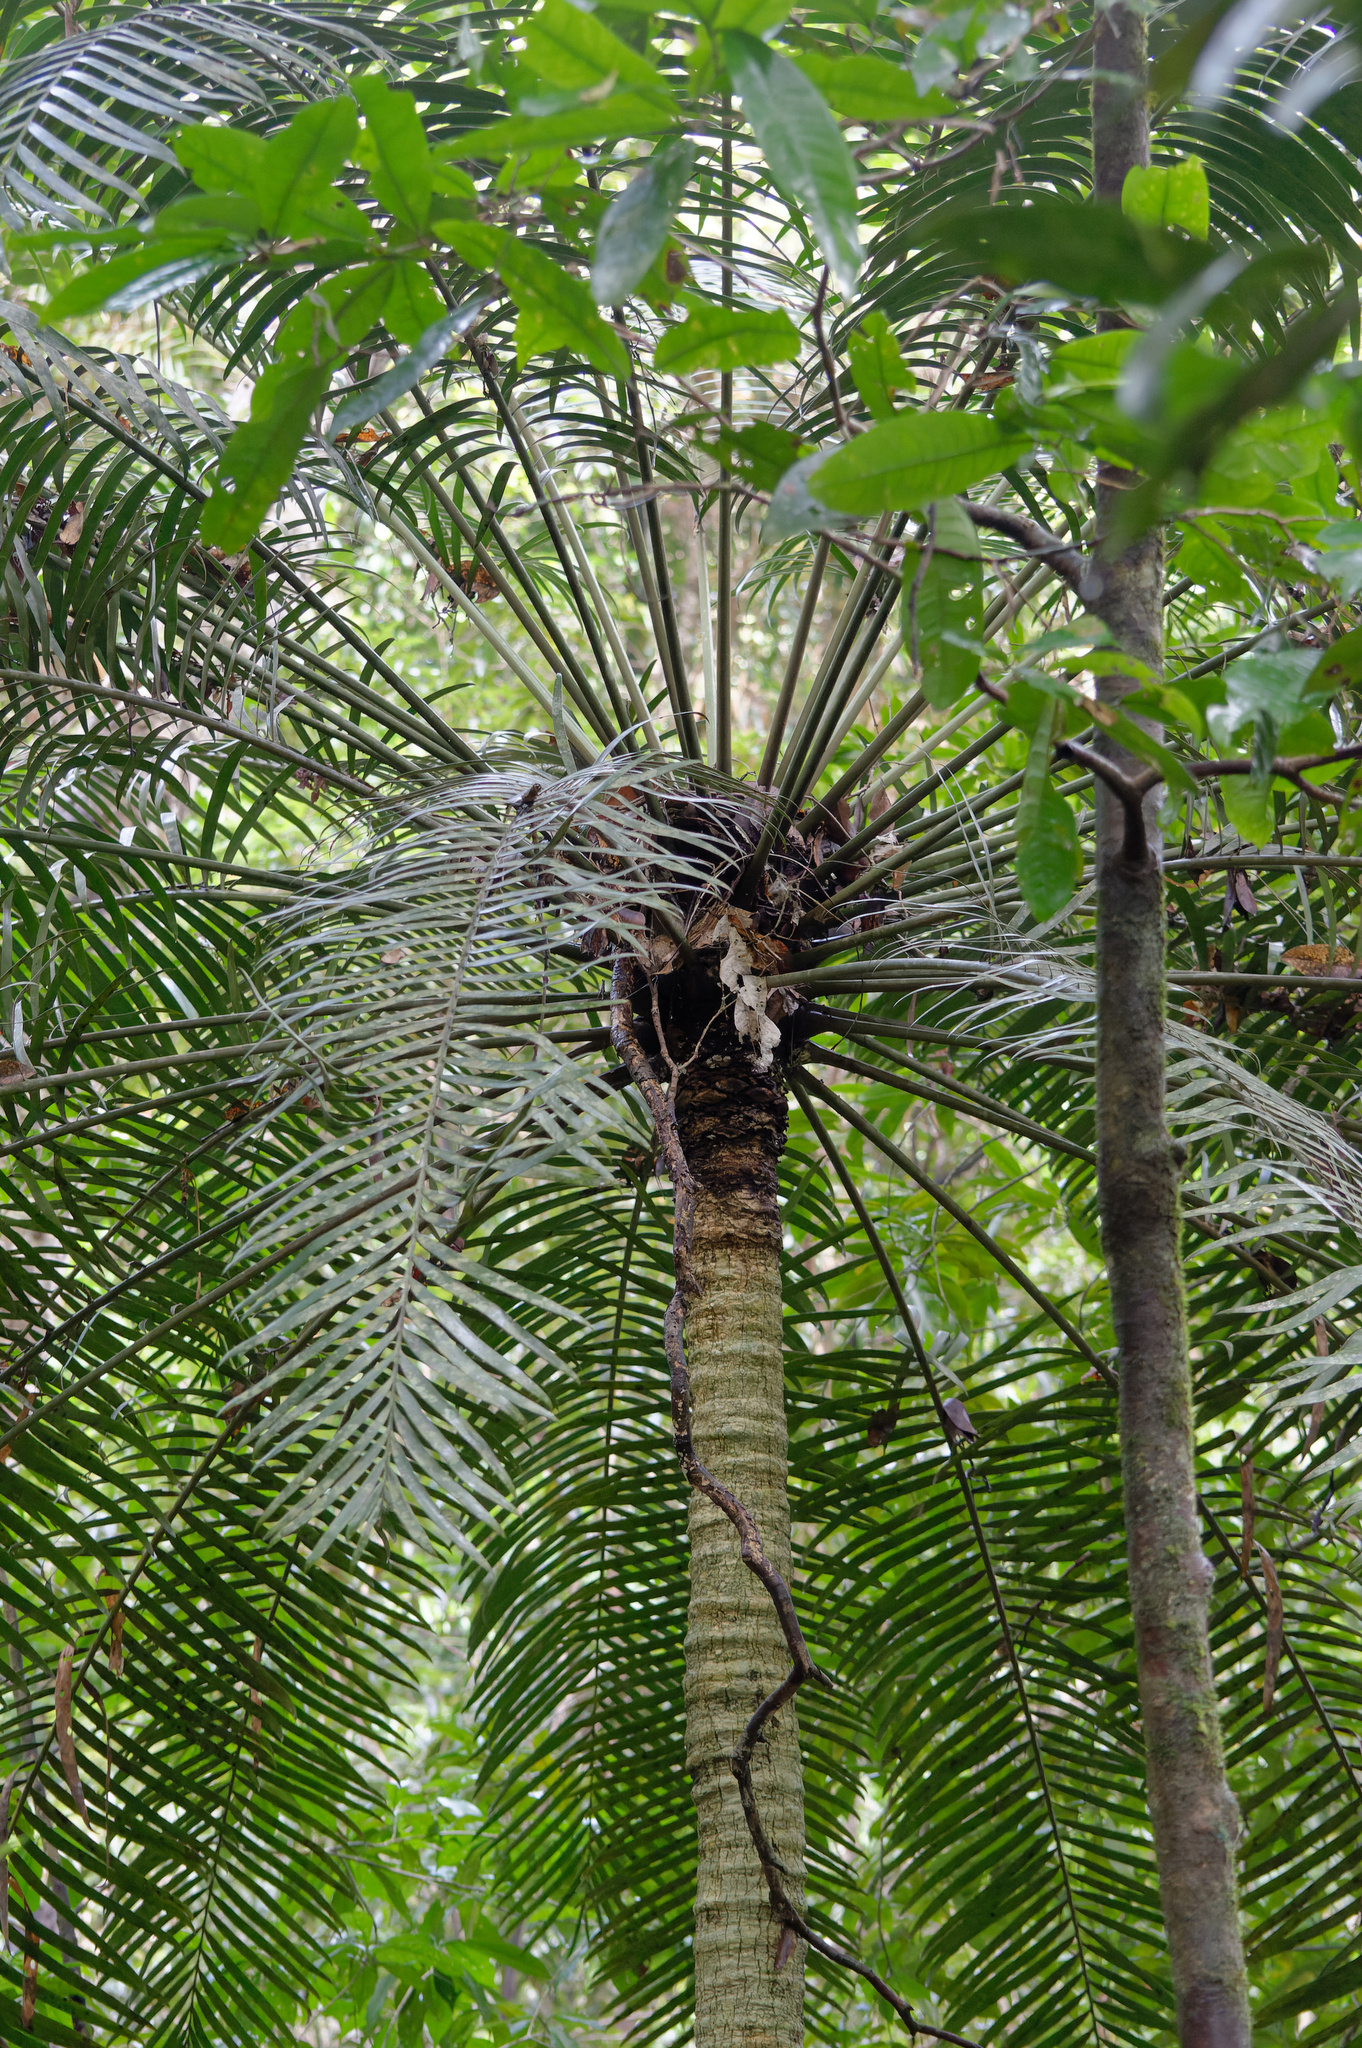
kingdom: Plantae
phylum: Tracheophyta
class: Cycadopsida
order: Cycadales
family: Zamiaceae
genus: Lepidozamia
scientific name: Lepidozamia hopei
